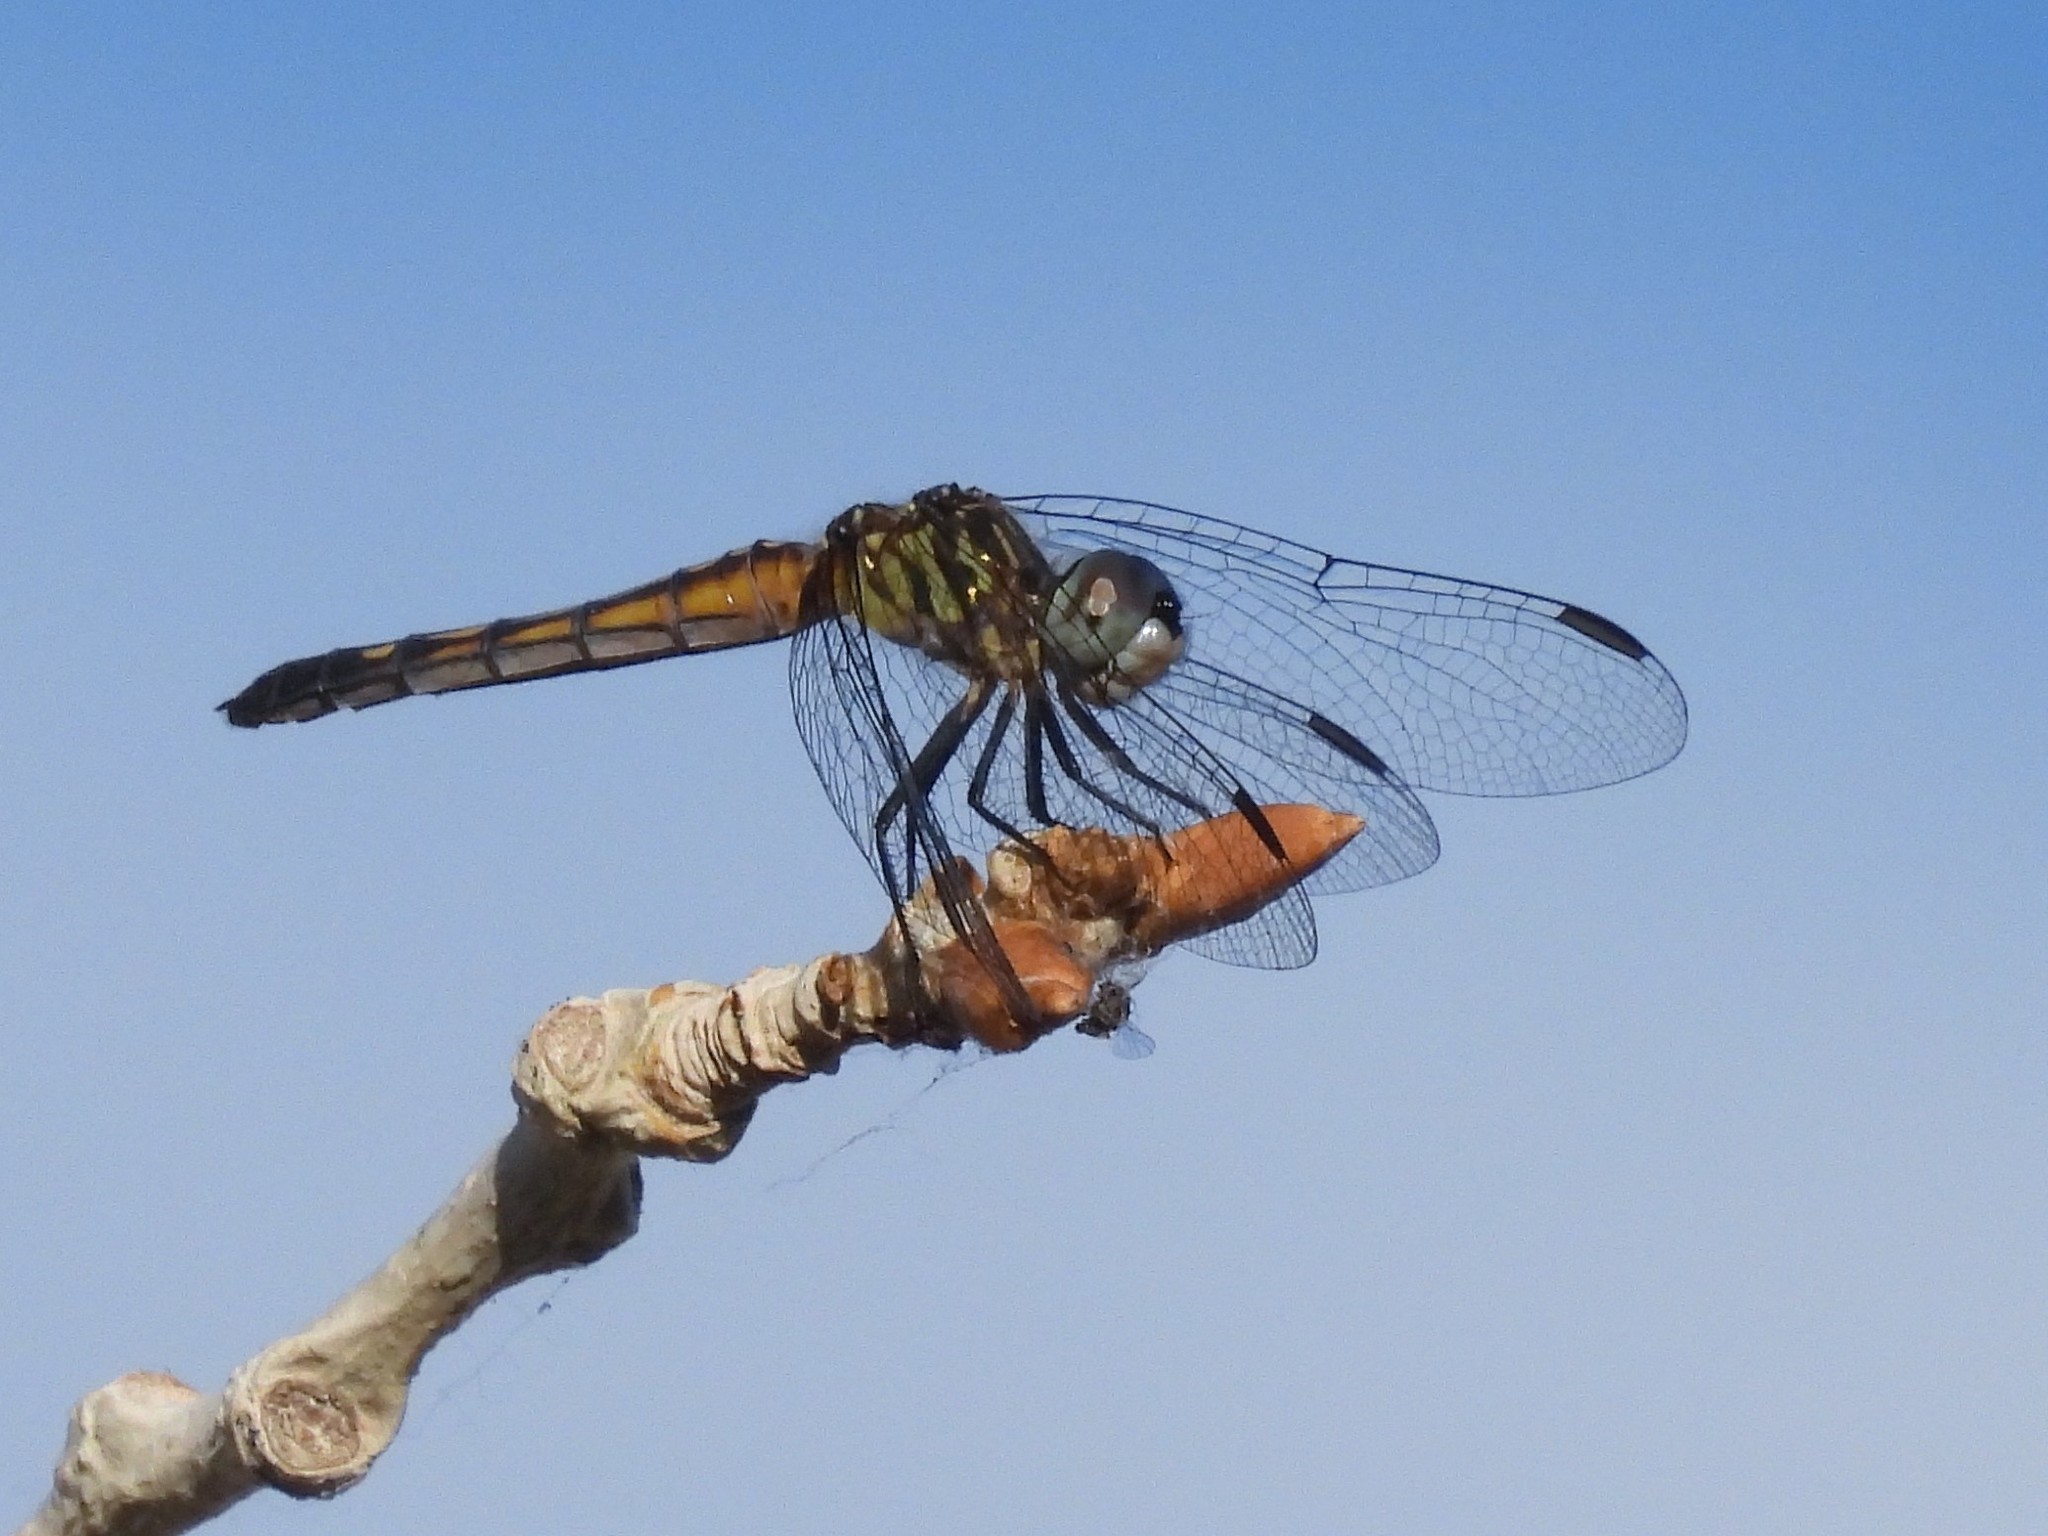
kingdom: Animalia
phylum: Arthropoda
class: Insecta
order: Odonata
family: Libellulidae
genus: Pachydiplax
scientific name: Pachydiplax longipennis
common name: Blue dasher
